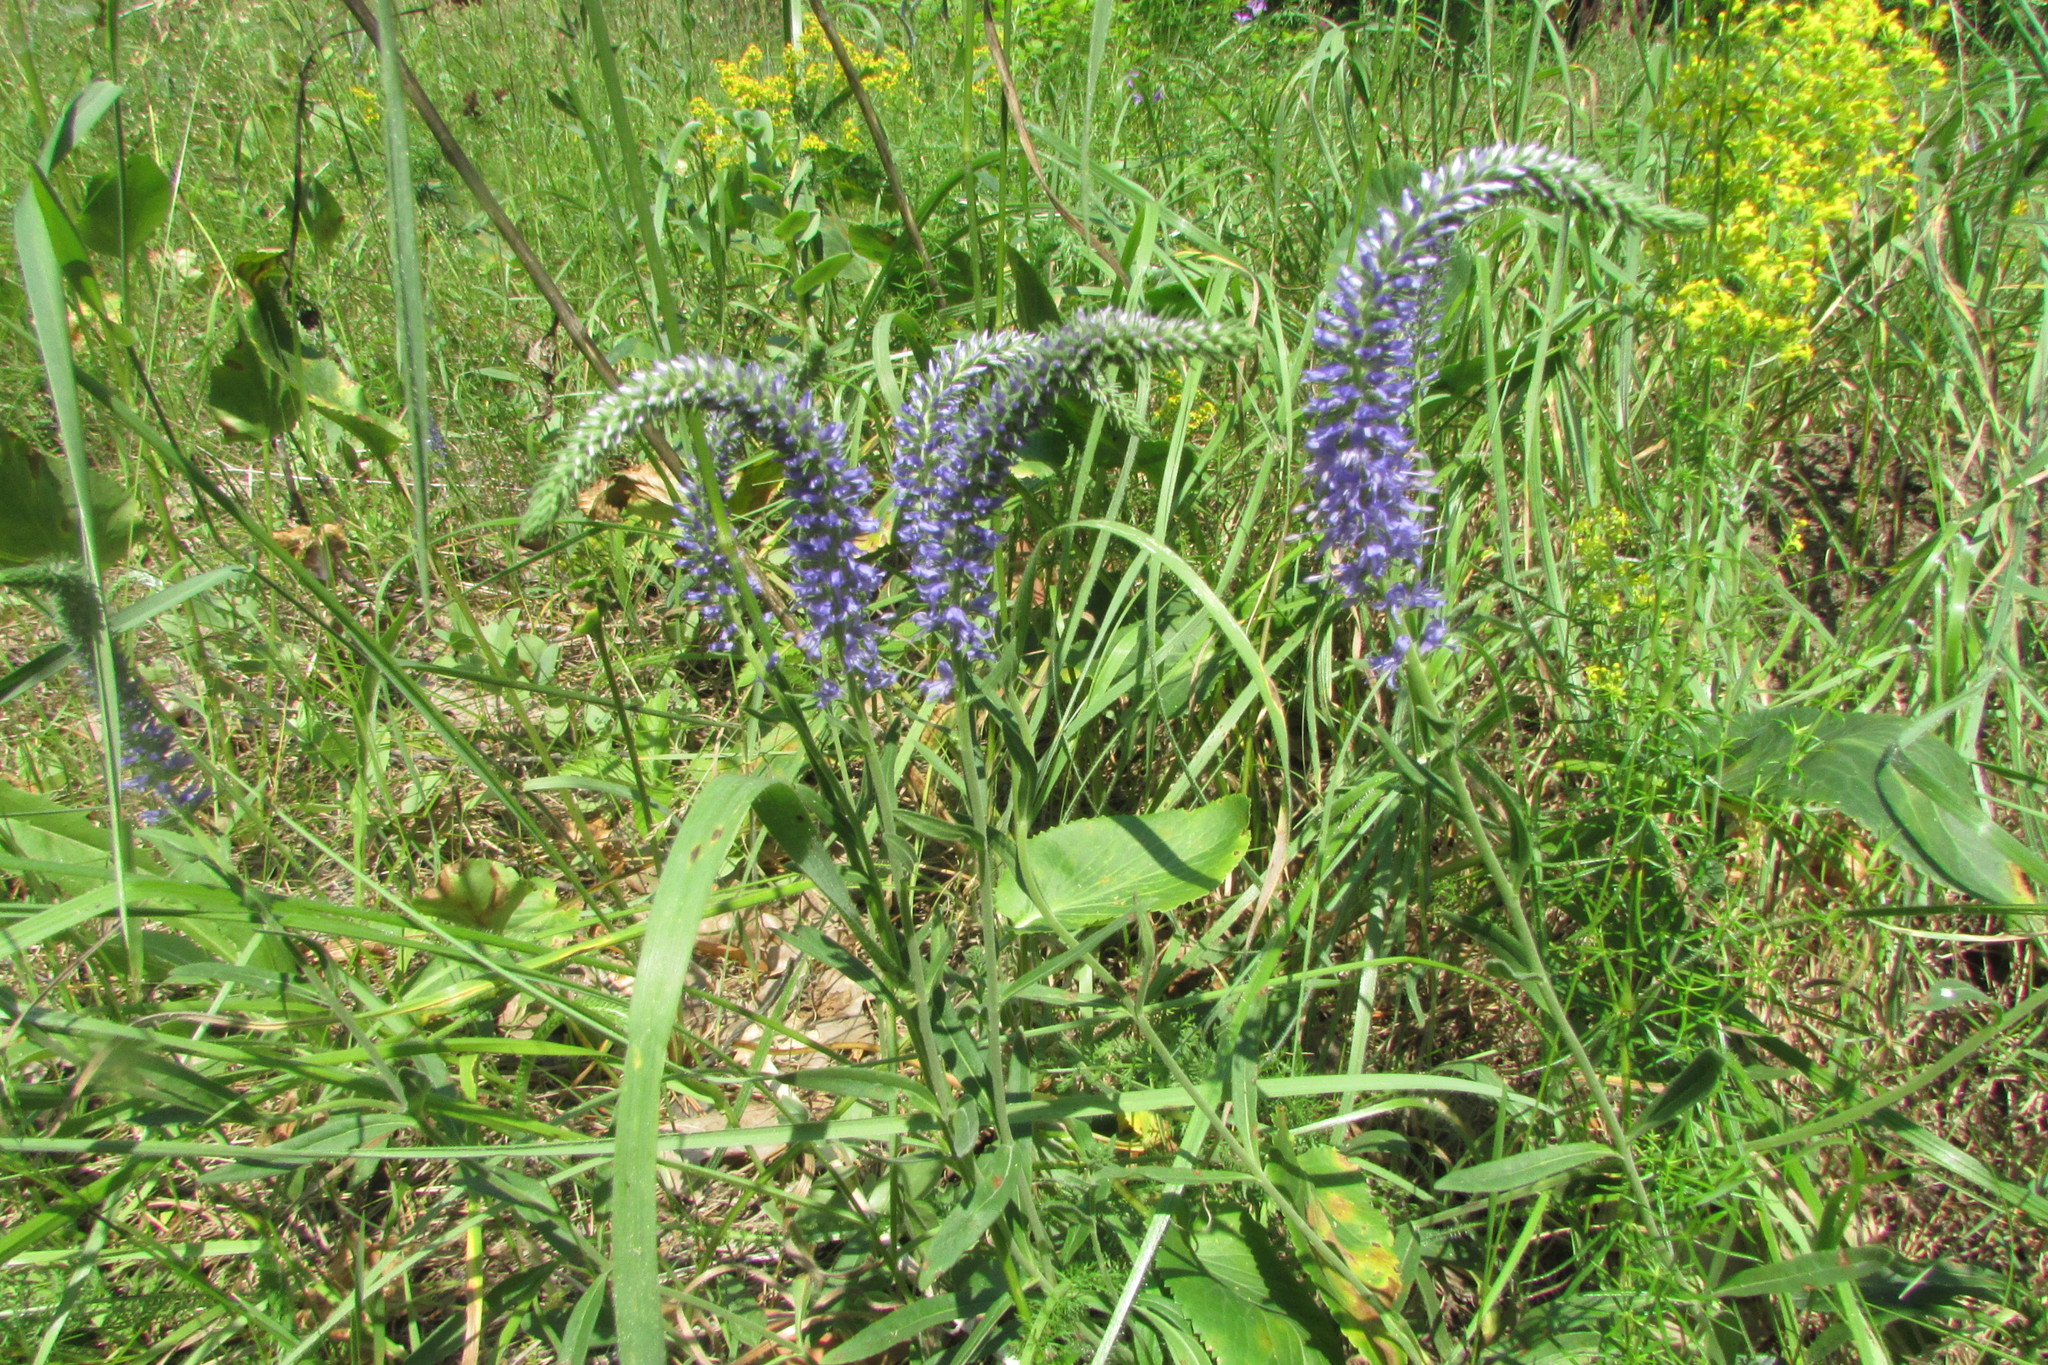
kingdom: Plantae
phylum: Tracheophyta
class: Magnoliopsida
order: Lamiales
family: Plantaginaceae
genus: Veronica
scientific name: Veronica spicata
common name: Spiked speedwell
